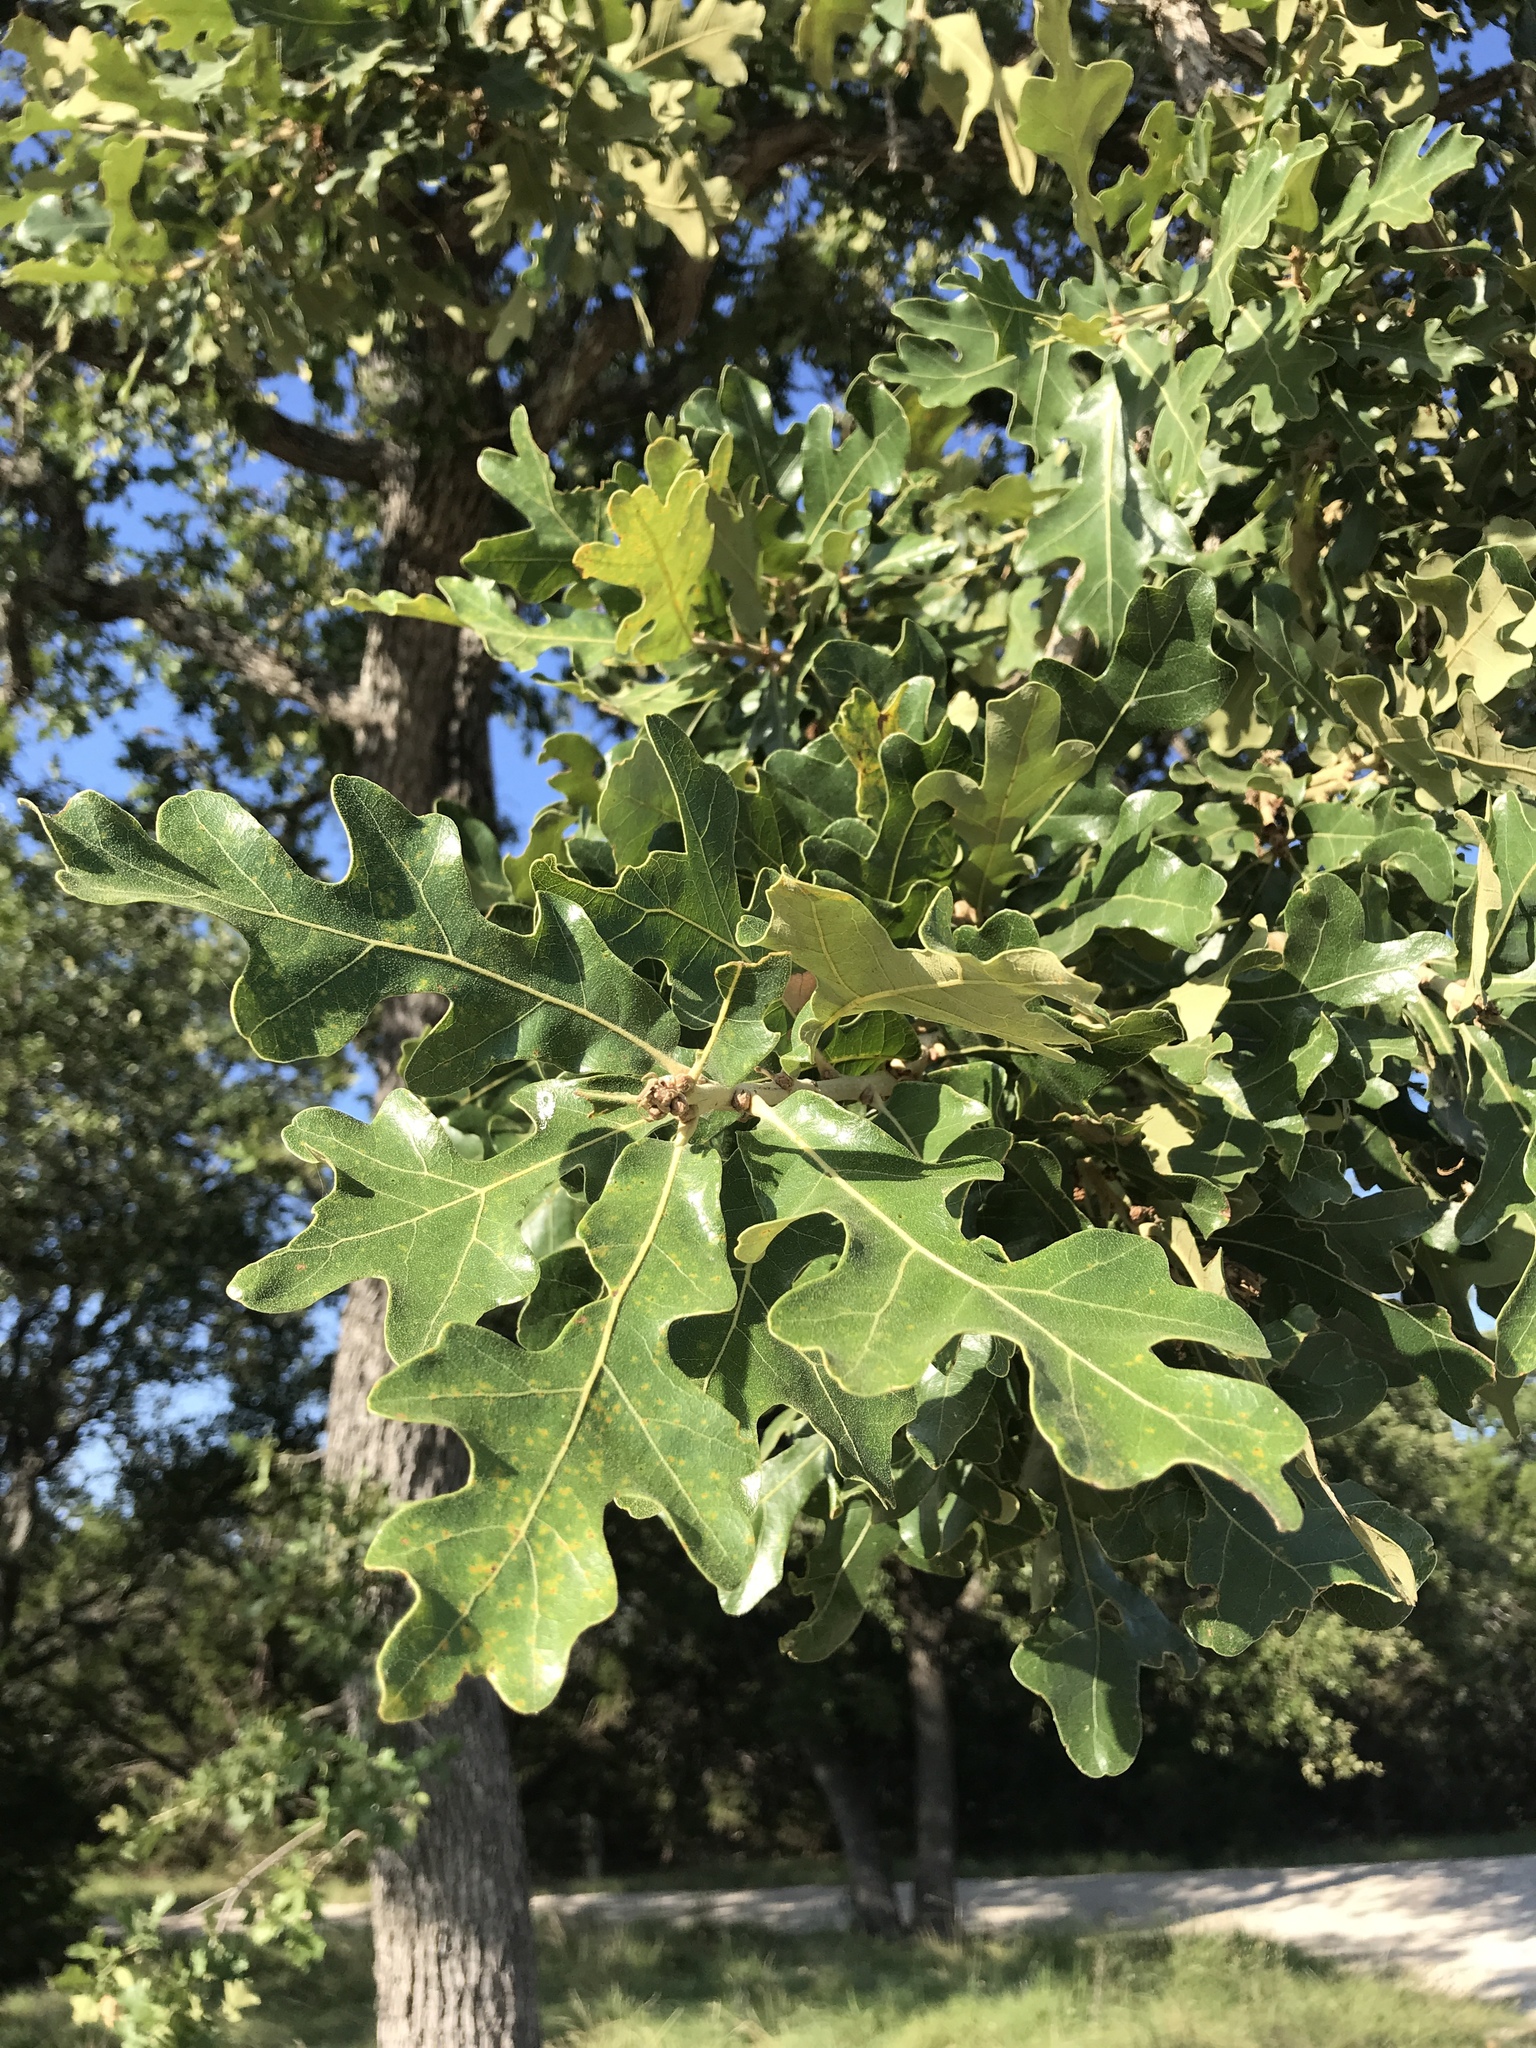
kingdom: Plantae
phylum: Tracheophyta
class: Magnoliopsida
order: Fagales
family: Fagaceae
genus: Quercus
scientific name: Quercus stellata
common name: Post oak
